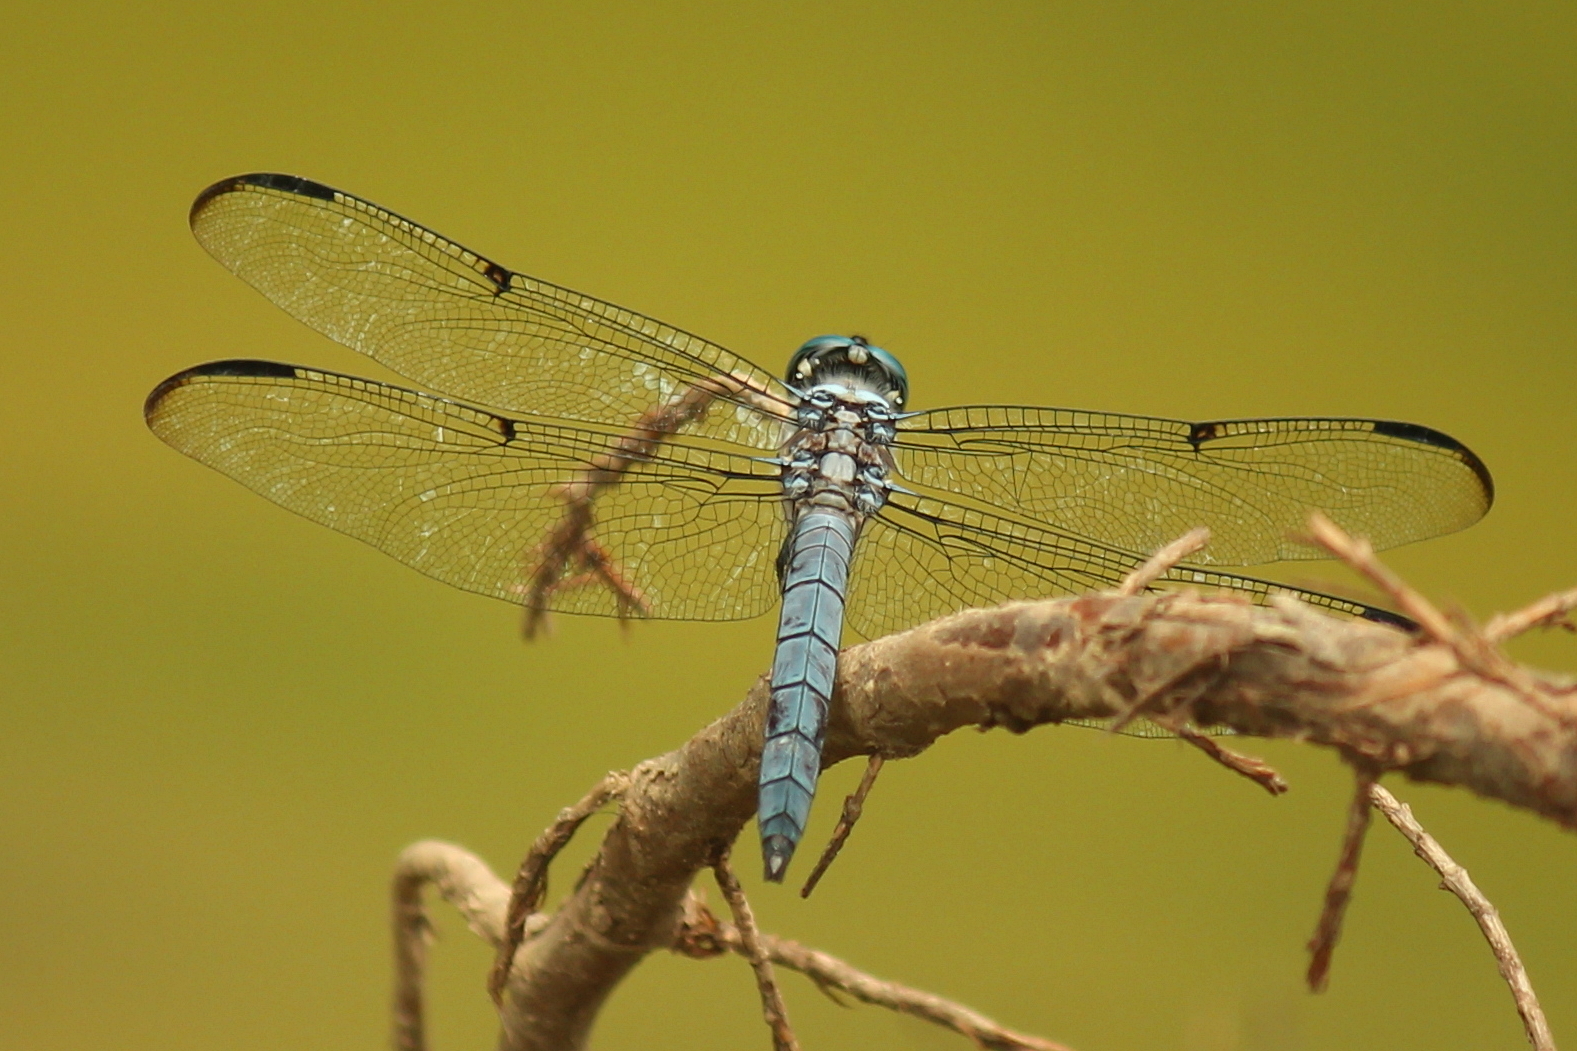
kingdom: Animalia
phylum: Arthropoda
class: Insecta
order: Odonata
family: Libellulidae
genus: Libellula
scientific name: Libellula vibrans
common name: Great blue skimmer
